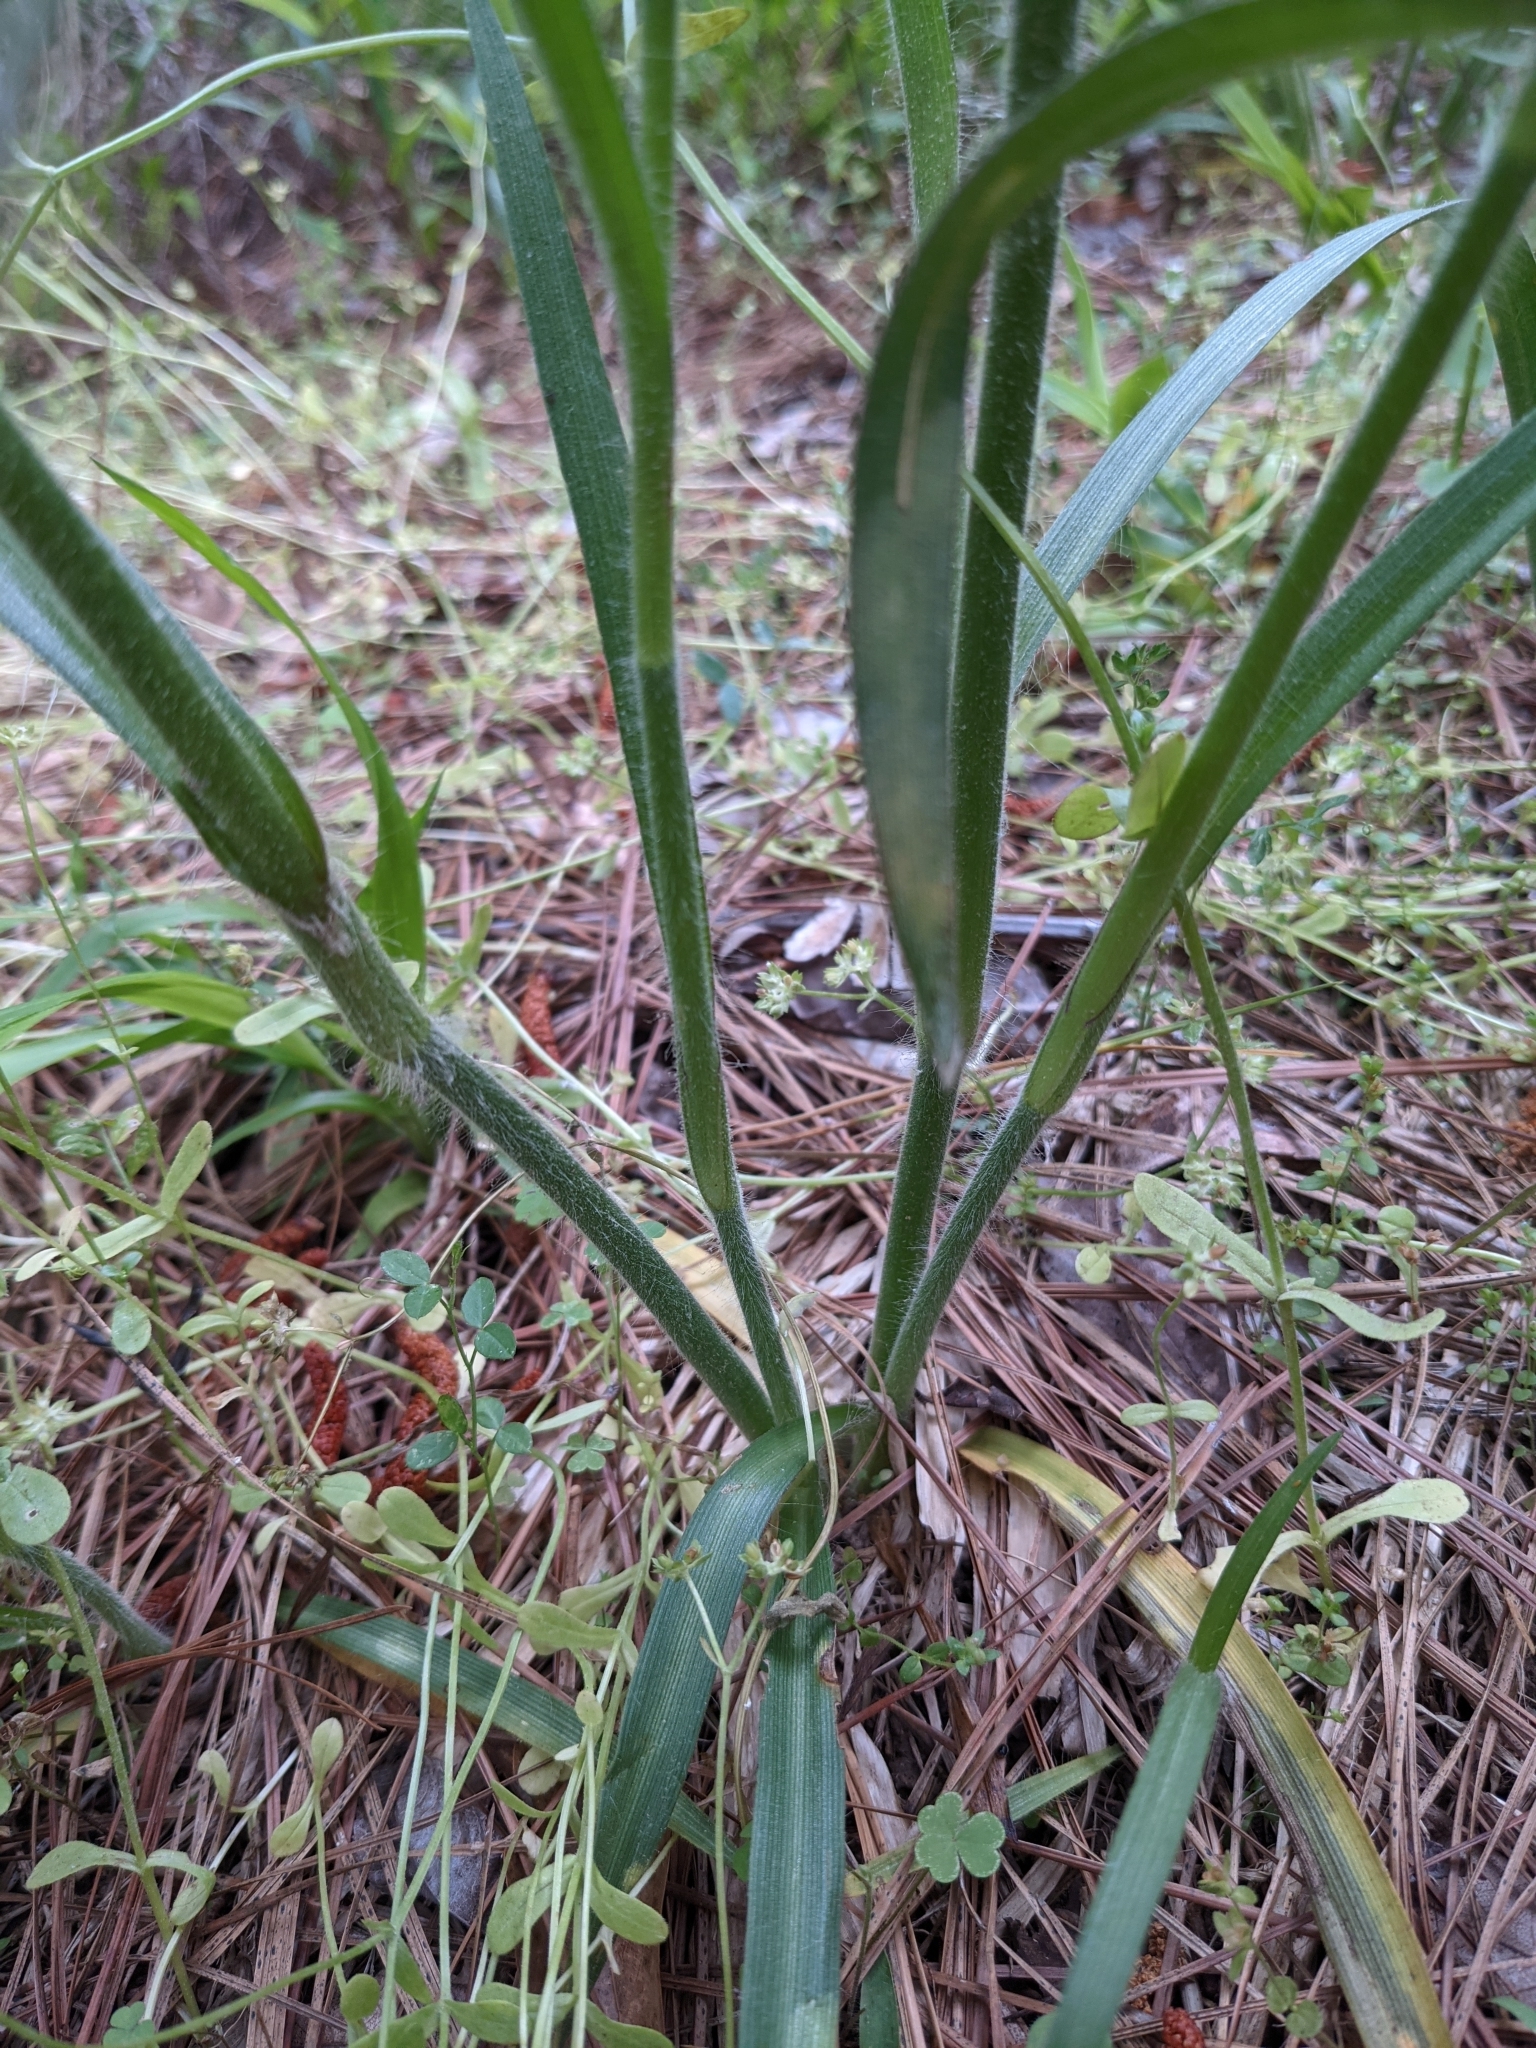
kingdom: Plantae
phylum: Tracheophyta
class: Liliopsida
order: Commelinales
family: Commelinaceae
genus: Tradescantia
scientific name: Tradescantia hirsuticaulis
